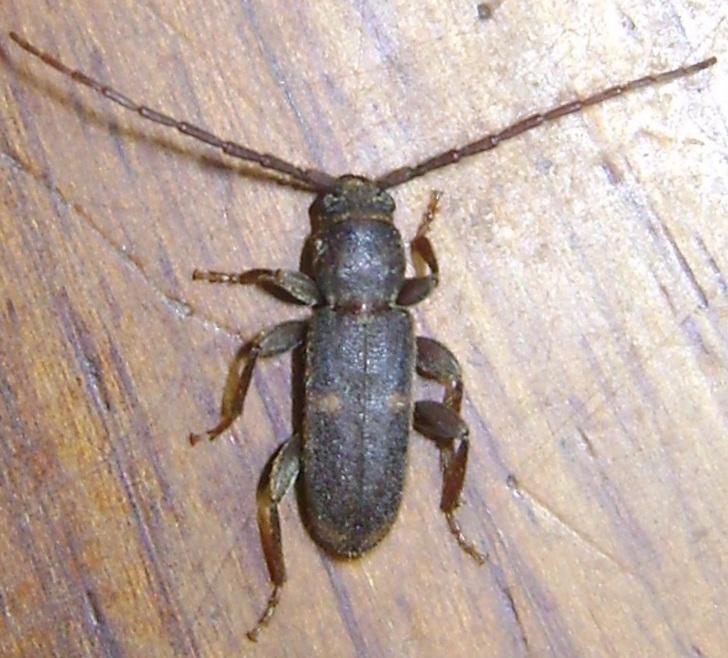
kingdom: Animalia
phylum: Arthropoda
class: Insecta
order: Coleoptera
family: Cerambycidae
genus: Zamium
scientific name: Zamium bimaculatum
